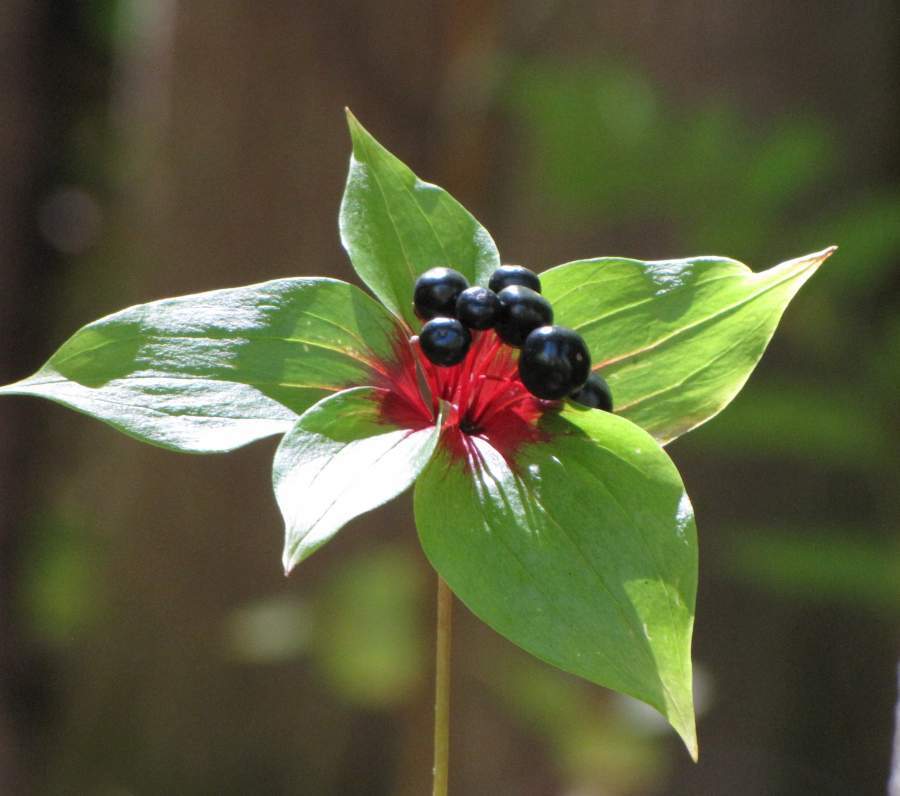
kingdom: Plantae
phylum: Tracheophyta
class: Liliopsida
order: Liliales
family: Liliaceae
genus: Medeola
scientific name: Medeola virginiana
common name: Indian cucumber-root
